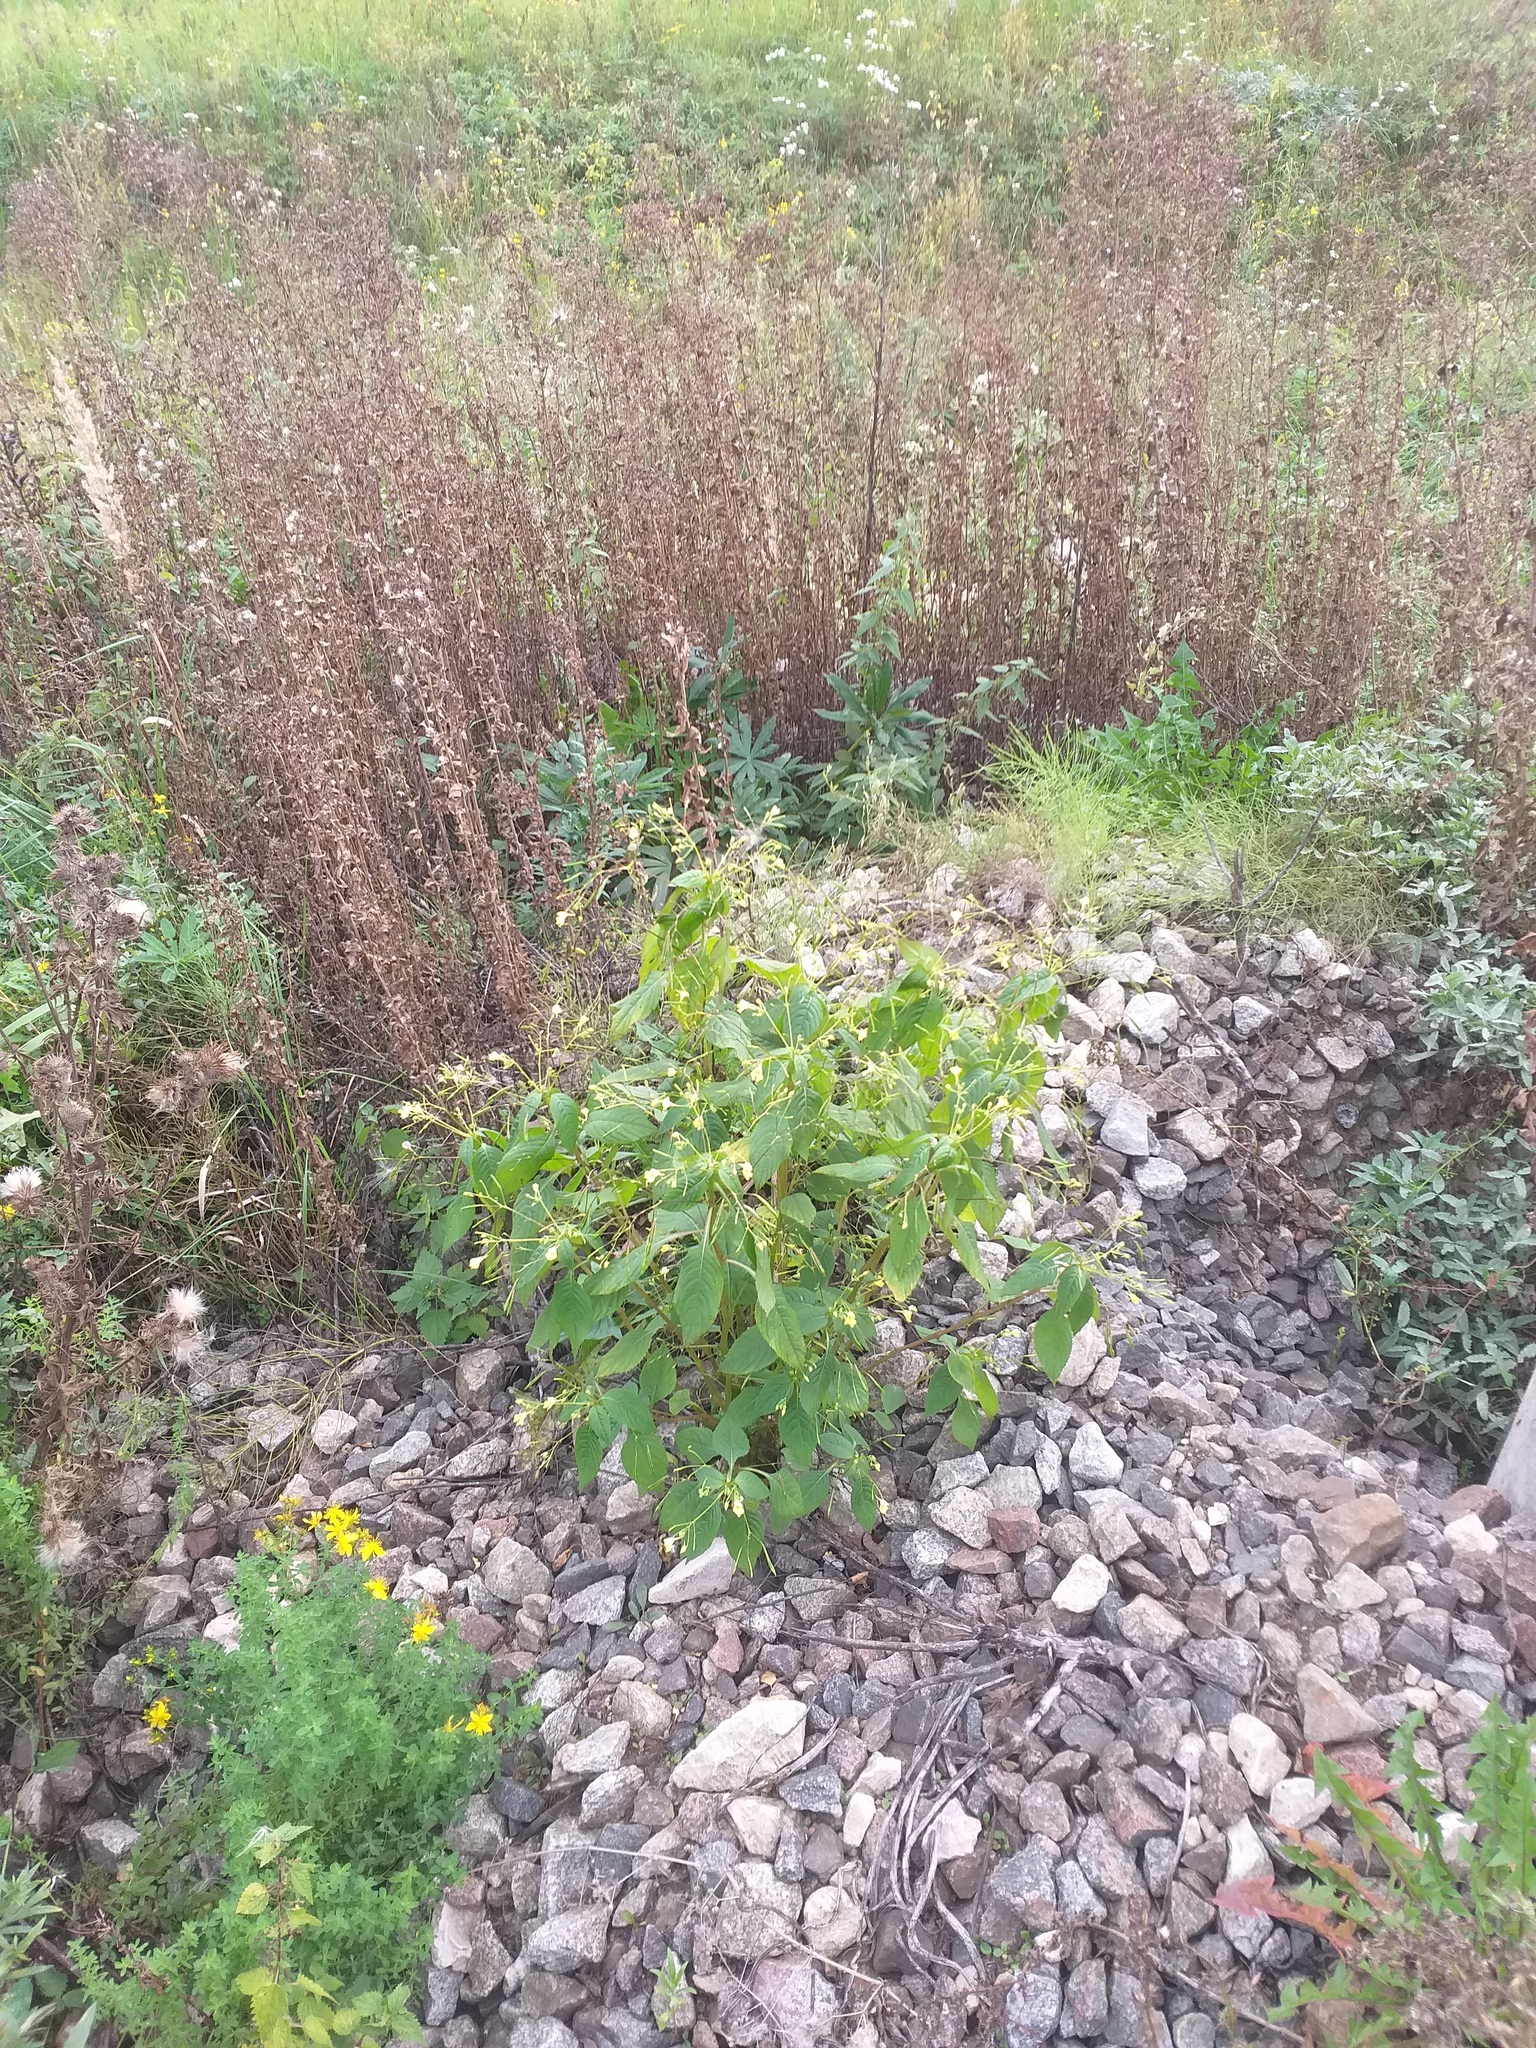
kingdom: Plantae
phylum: Tracheophyta
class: Magnoliopsida
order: Ericales
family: Balsaminaceae
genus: Impatiens
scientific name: Impatiens parviflora
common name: Small balsam
